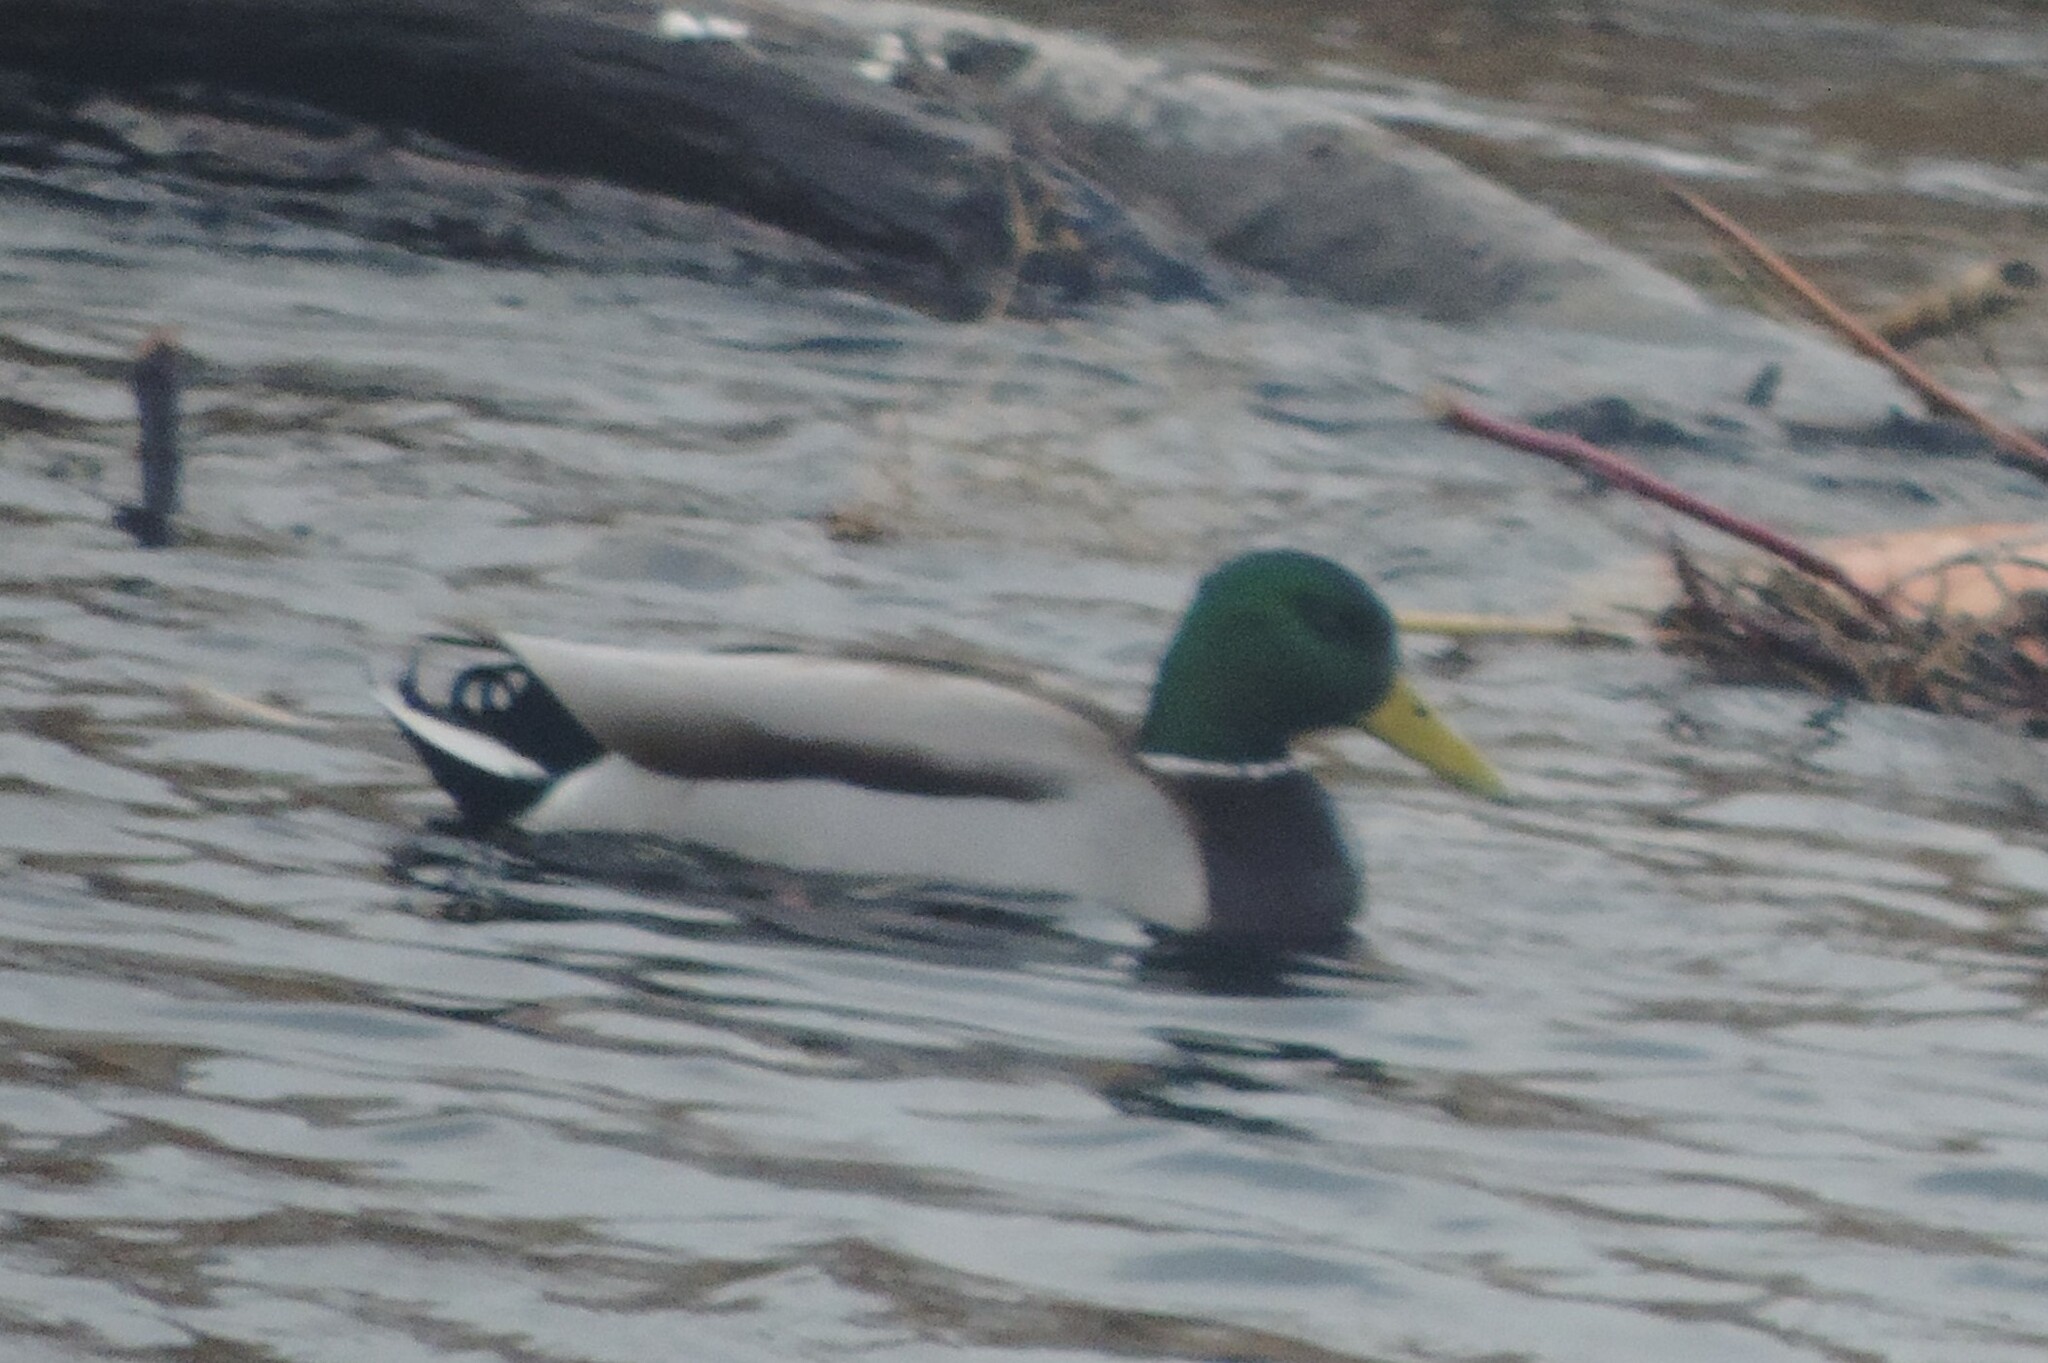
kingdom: Animalia
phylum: Chordata
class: Aves
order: Anseriformes
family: Anatidae
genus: Anas
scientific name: Anas platyrhynchos
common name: Mallard
